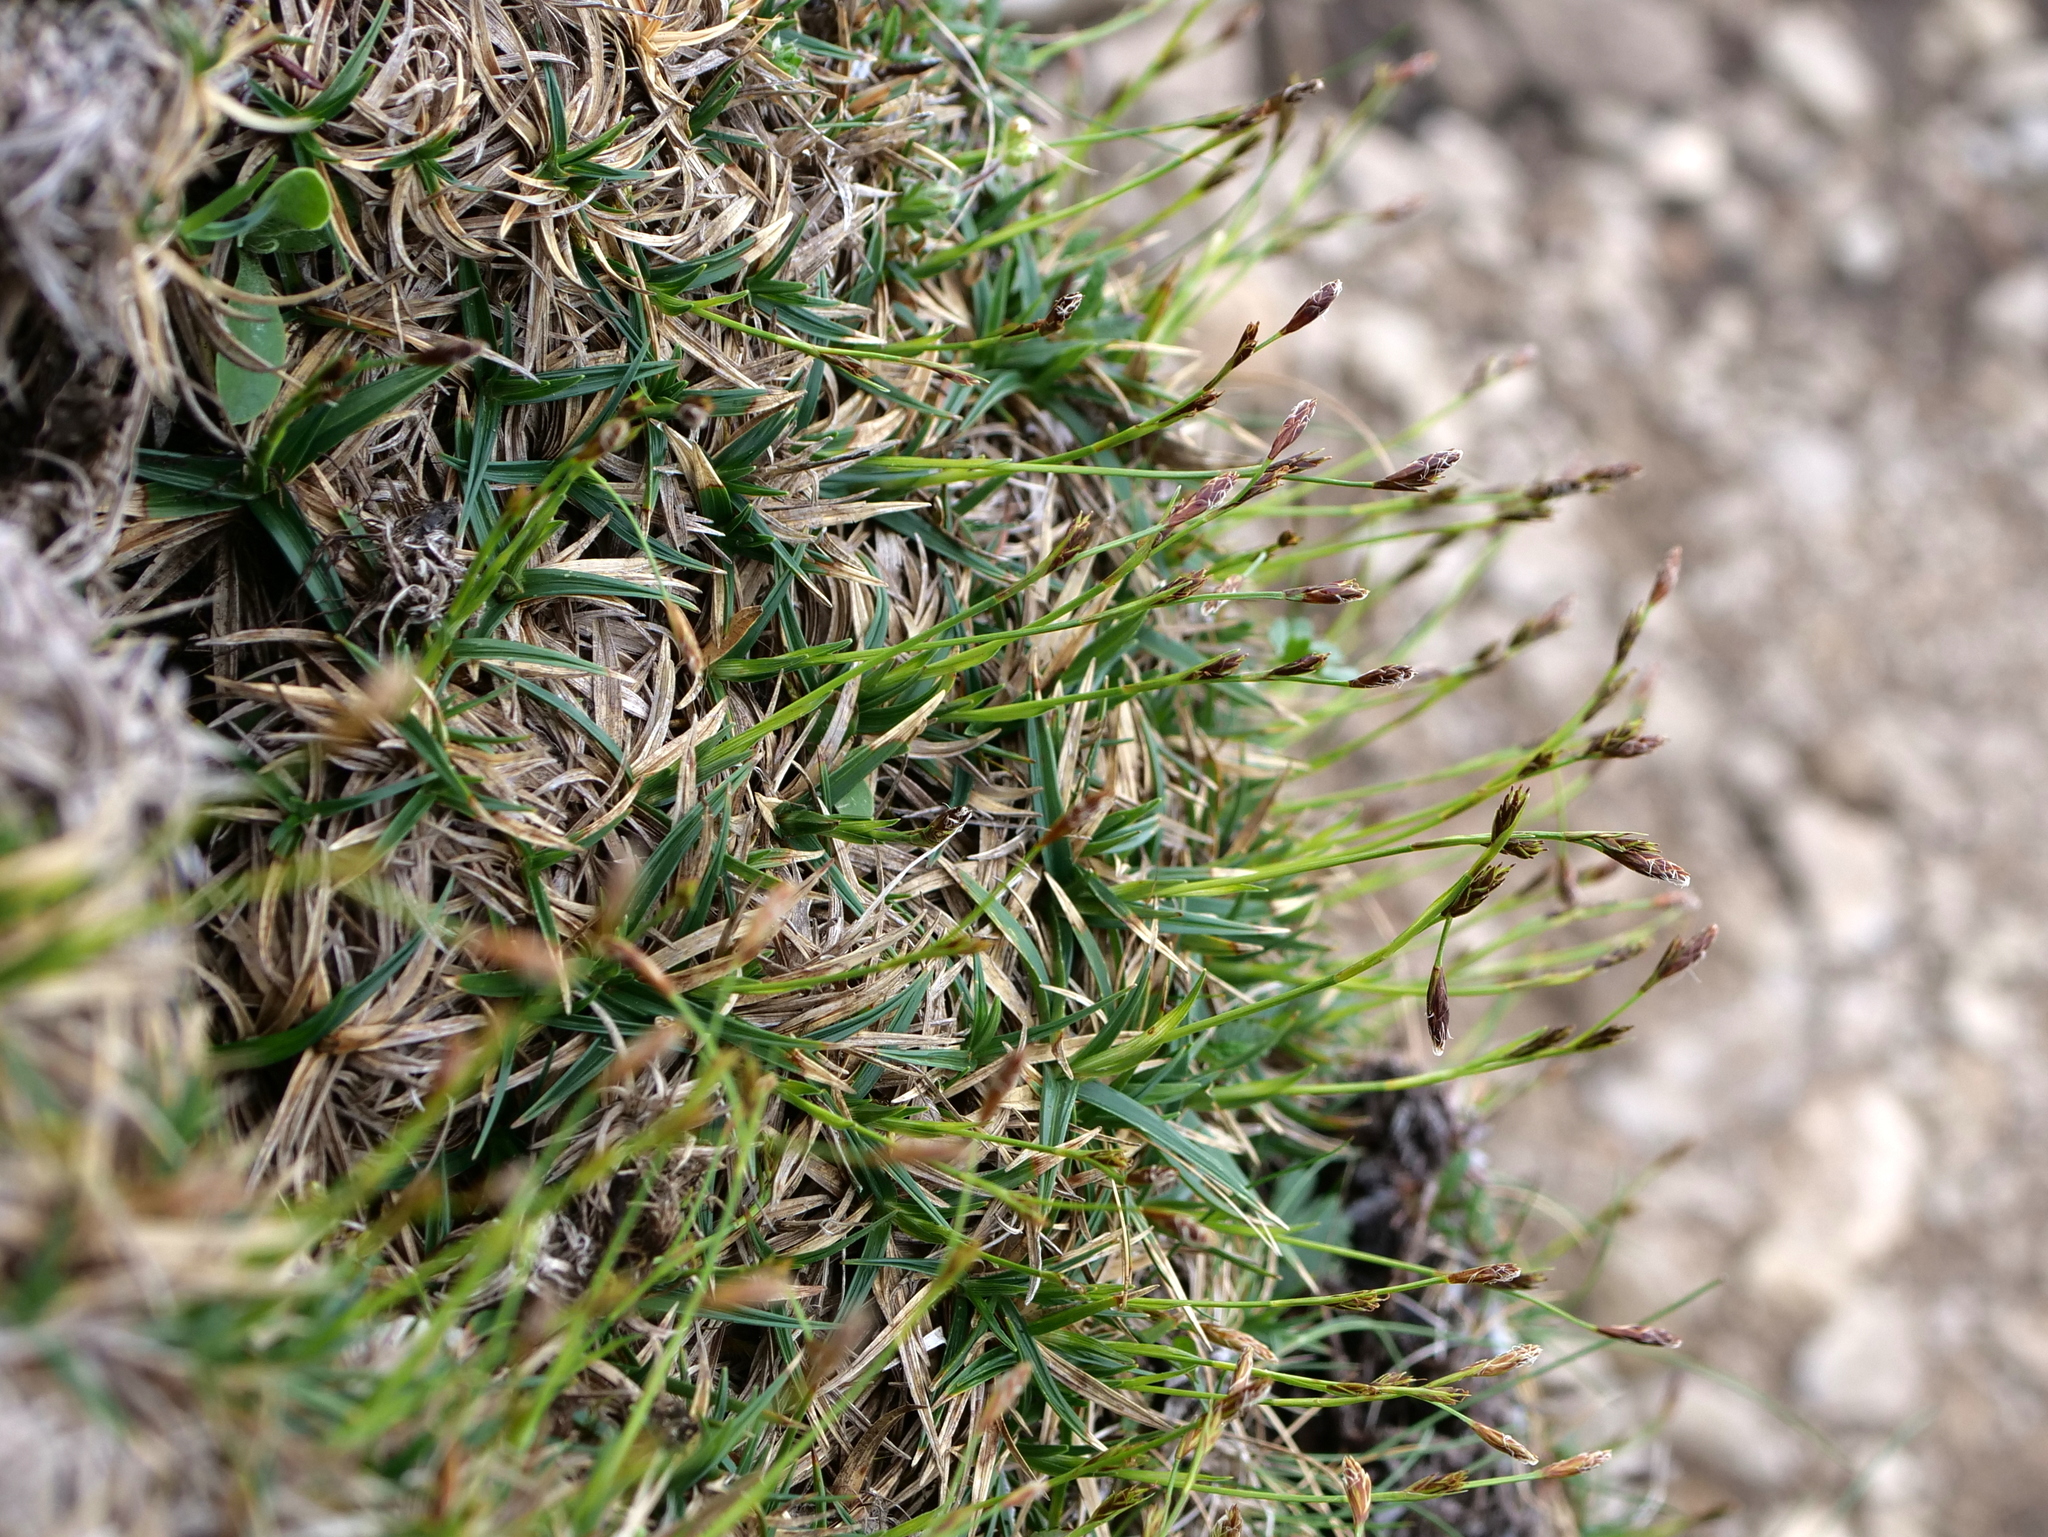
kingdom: Plantae
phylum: Tracheophyta
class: Liliopsida
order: Poales
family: Cyperaceae
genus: Carex
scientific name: Carex firma
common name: Dwarf pillow sedge
